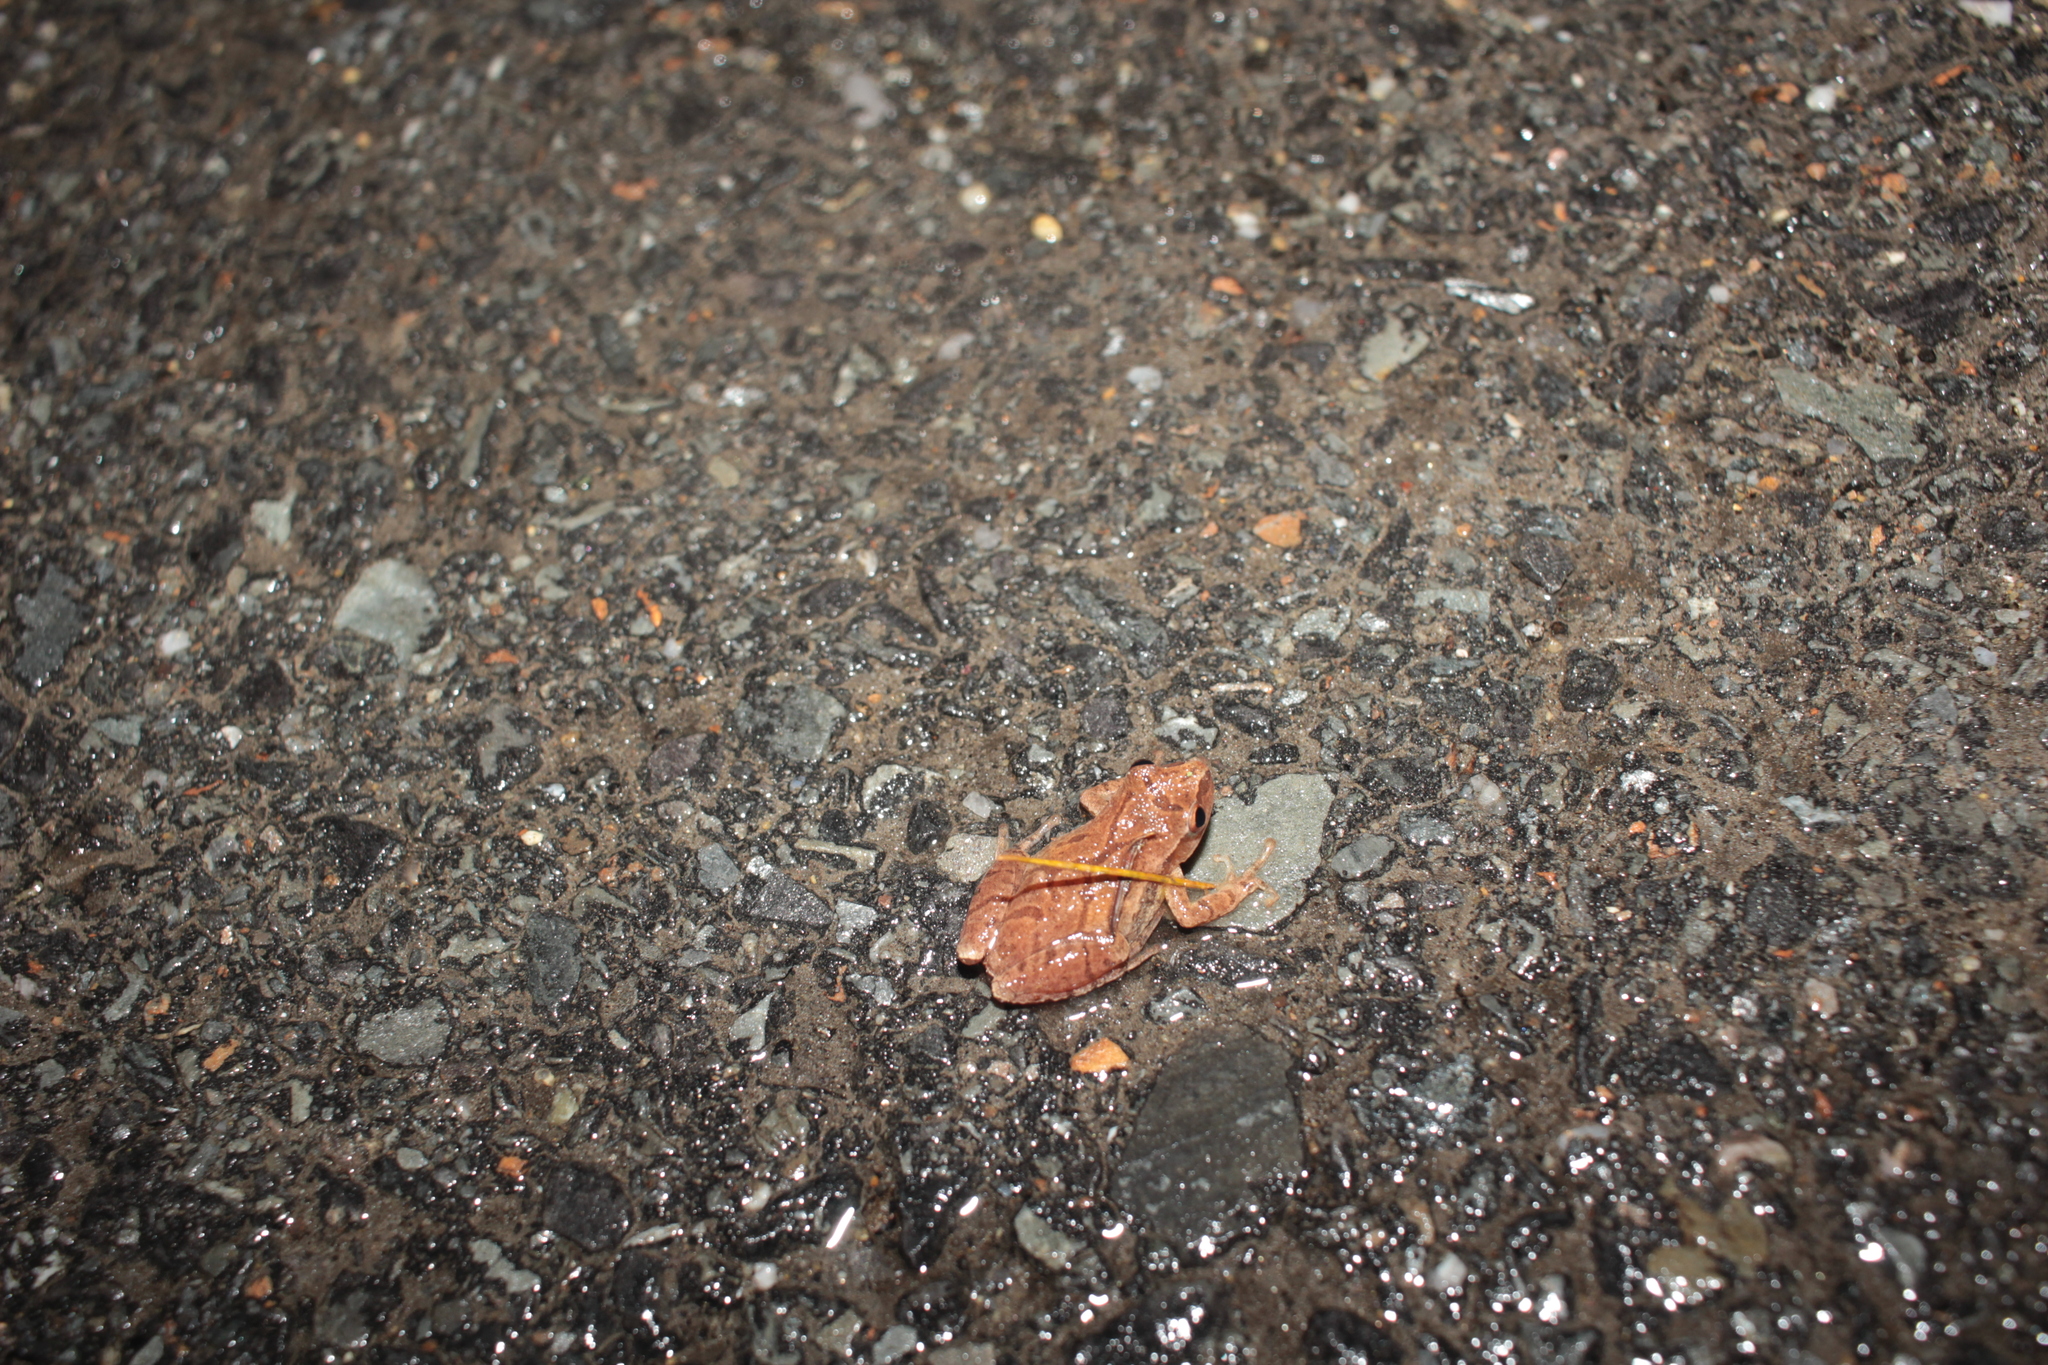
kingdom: Animalia
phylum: Chordata
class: Amphibia
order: Anura
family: Hylidae
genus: Pseudacris
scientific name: Pseudacris crucifer
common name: Spring peeper
